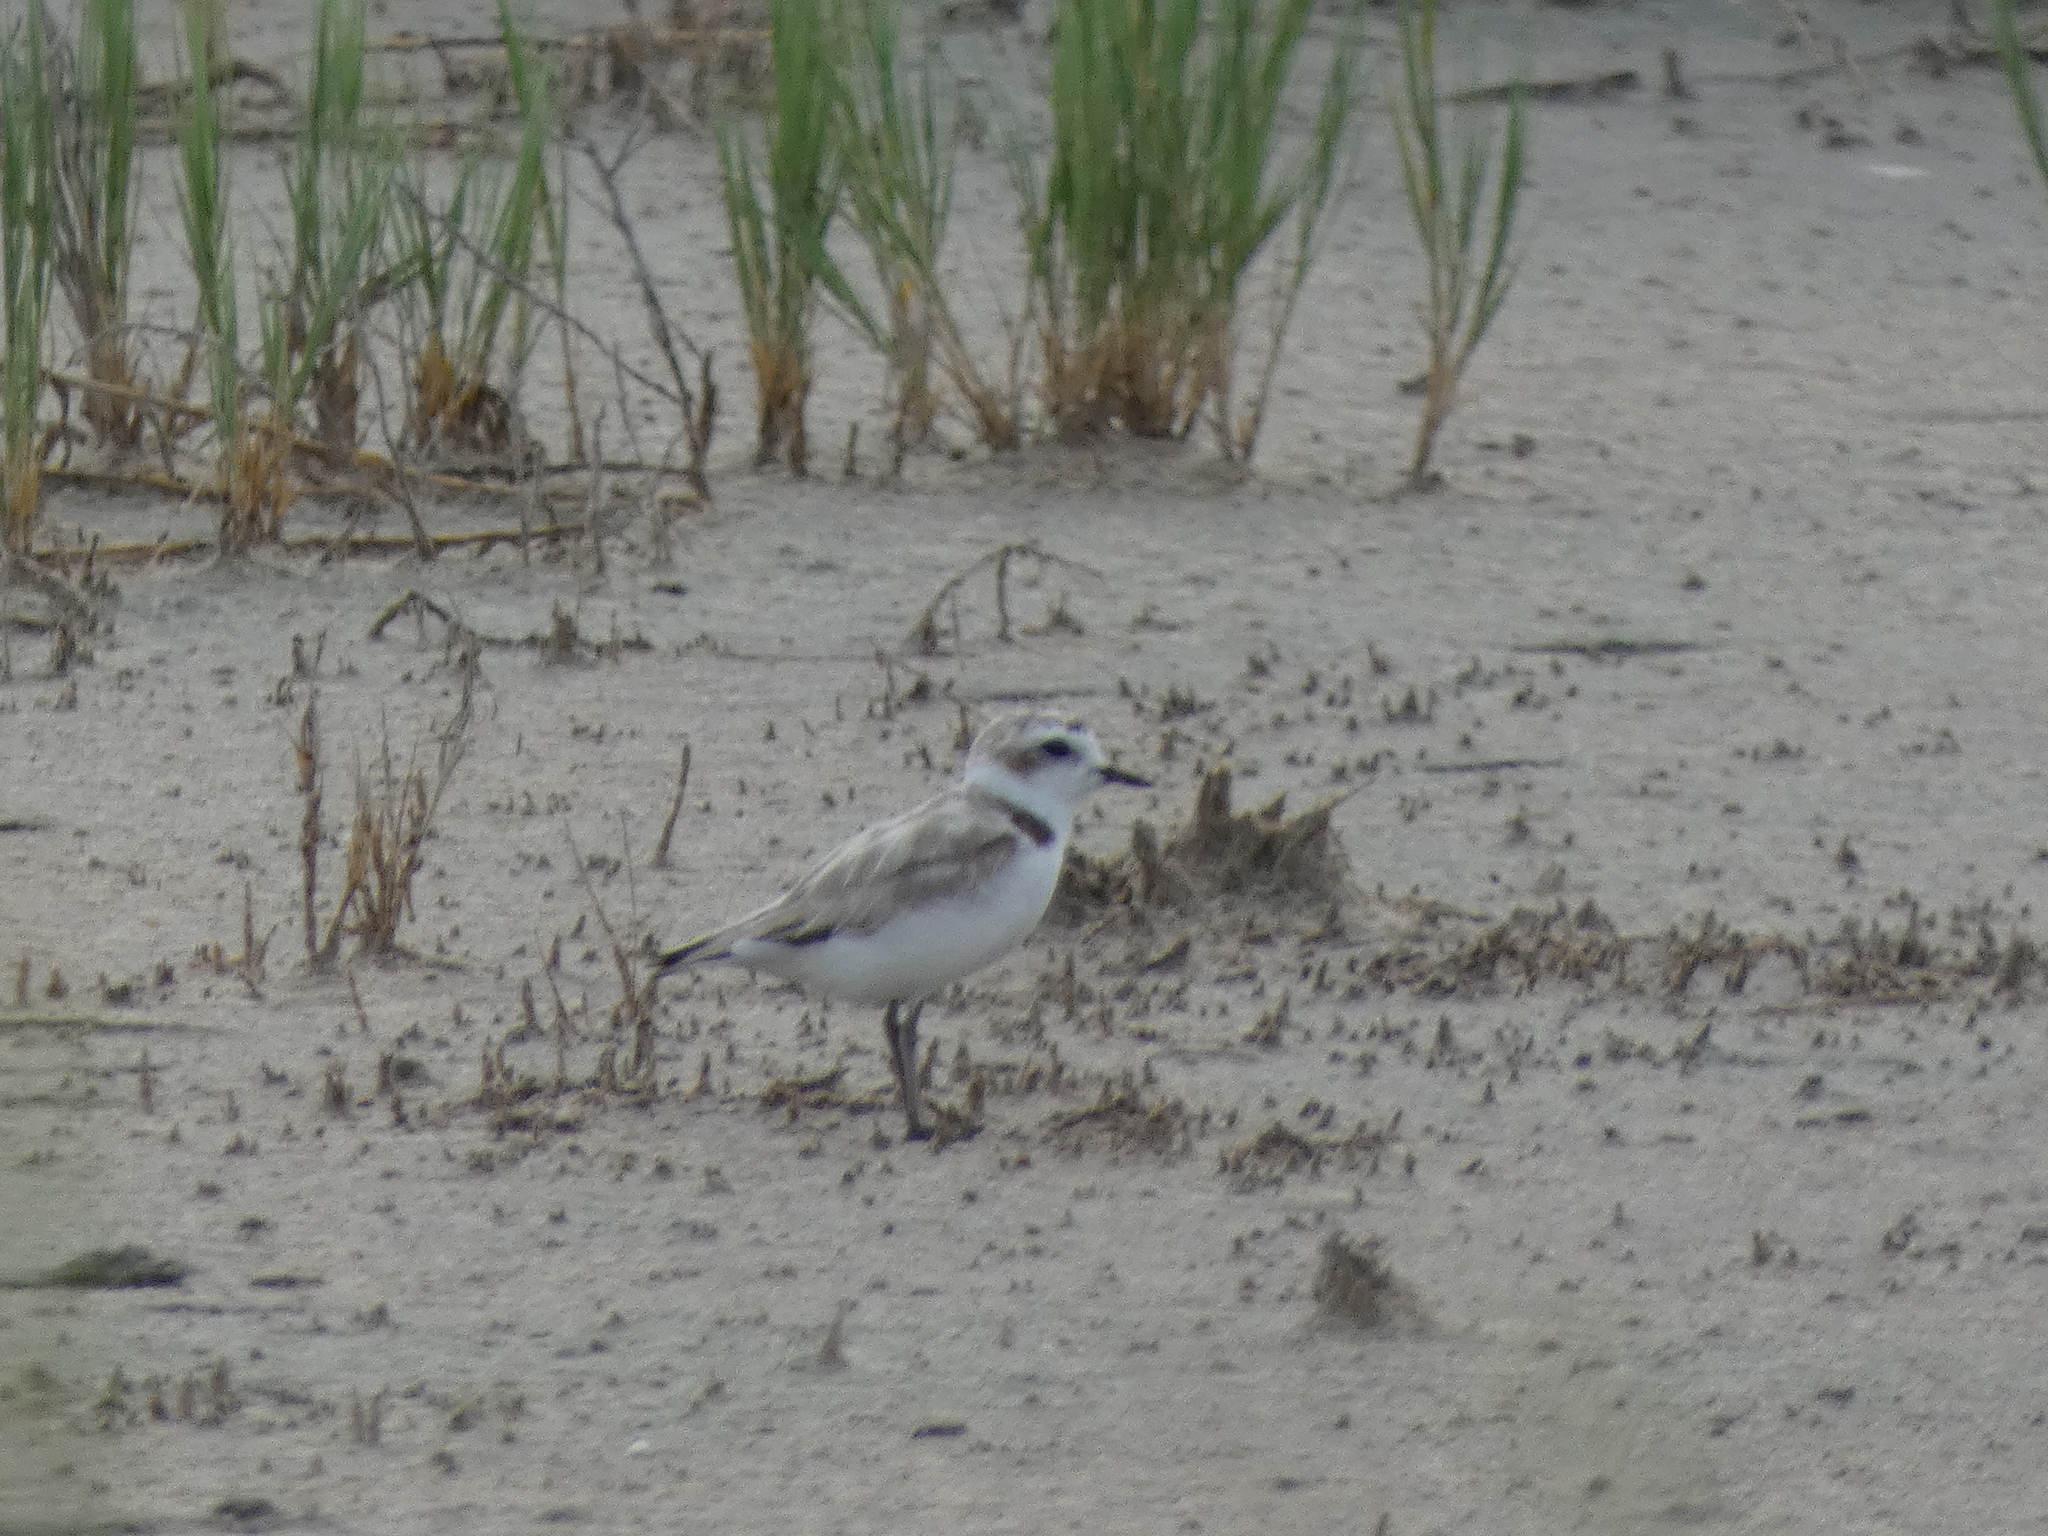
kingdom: Animalia
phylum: Chordata
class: Aves
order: Charadriiformes
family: Charadriidae
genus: Anarhynchus
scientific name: Anarhynchus
